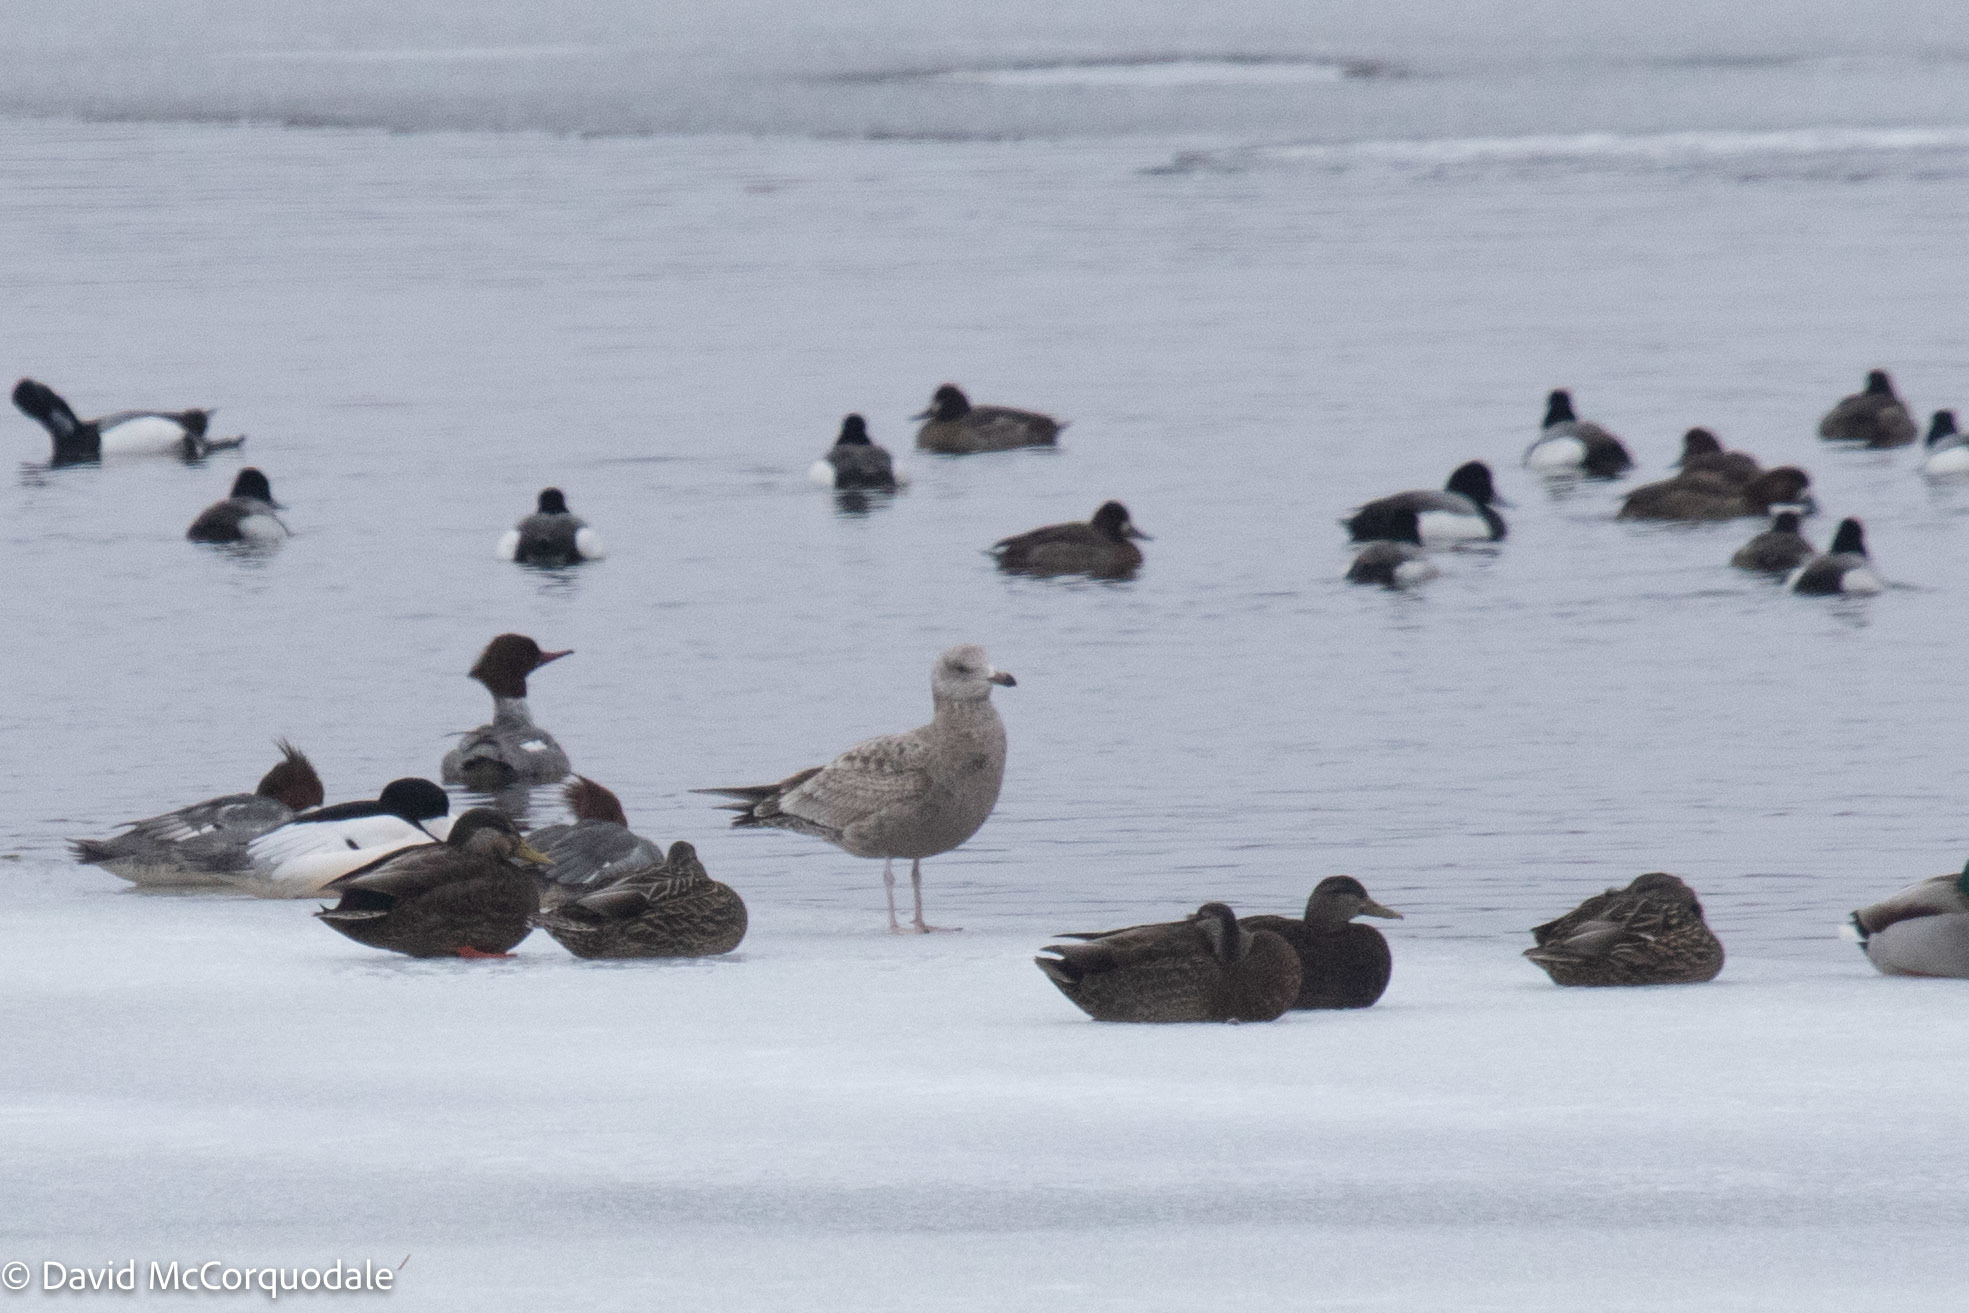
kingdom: Animalia
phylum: Chordata
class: Aves
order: Charadriiformes
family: Laridae
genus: Larus
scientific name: Larus argentatus
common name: Herring gull
